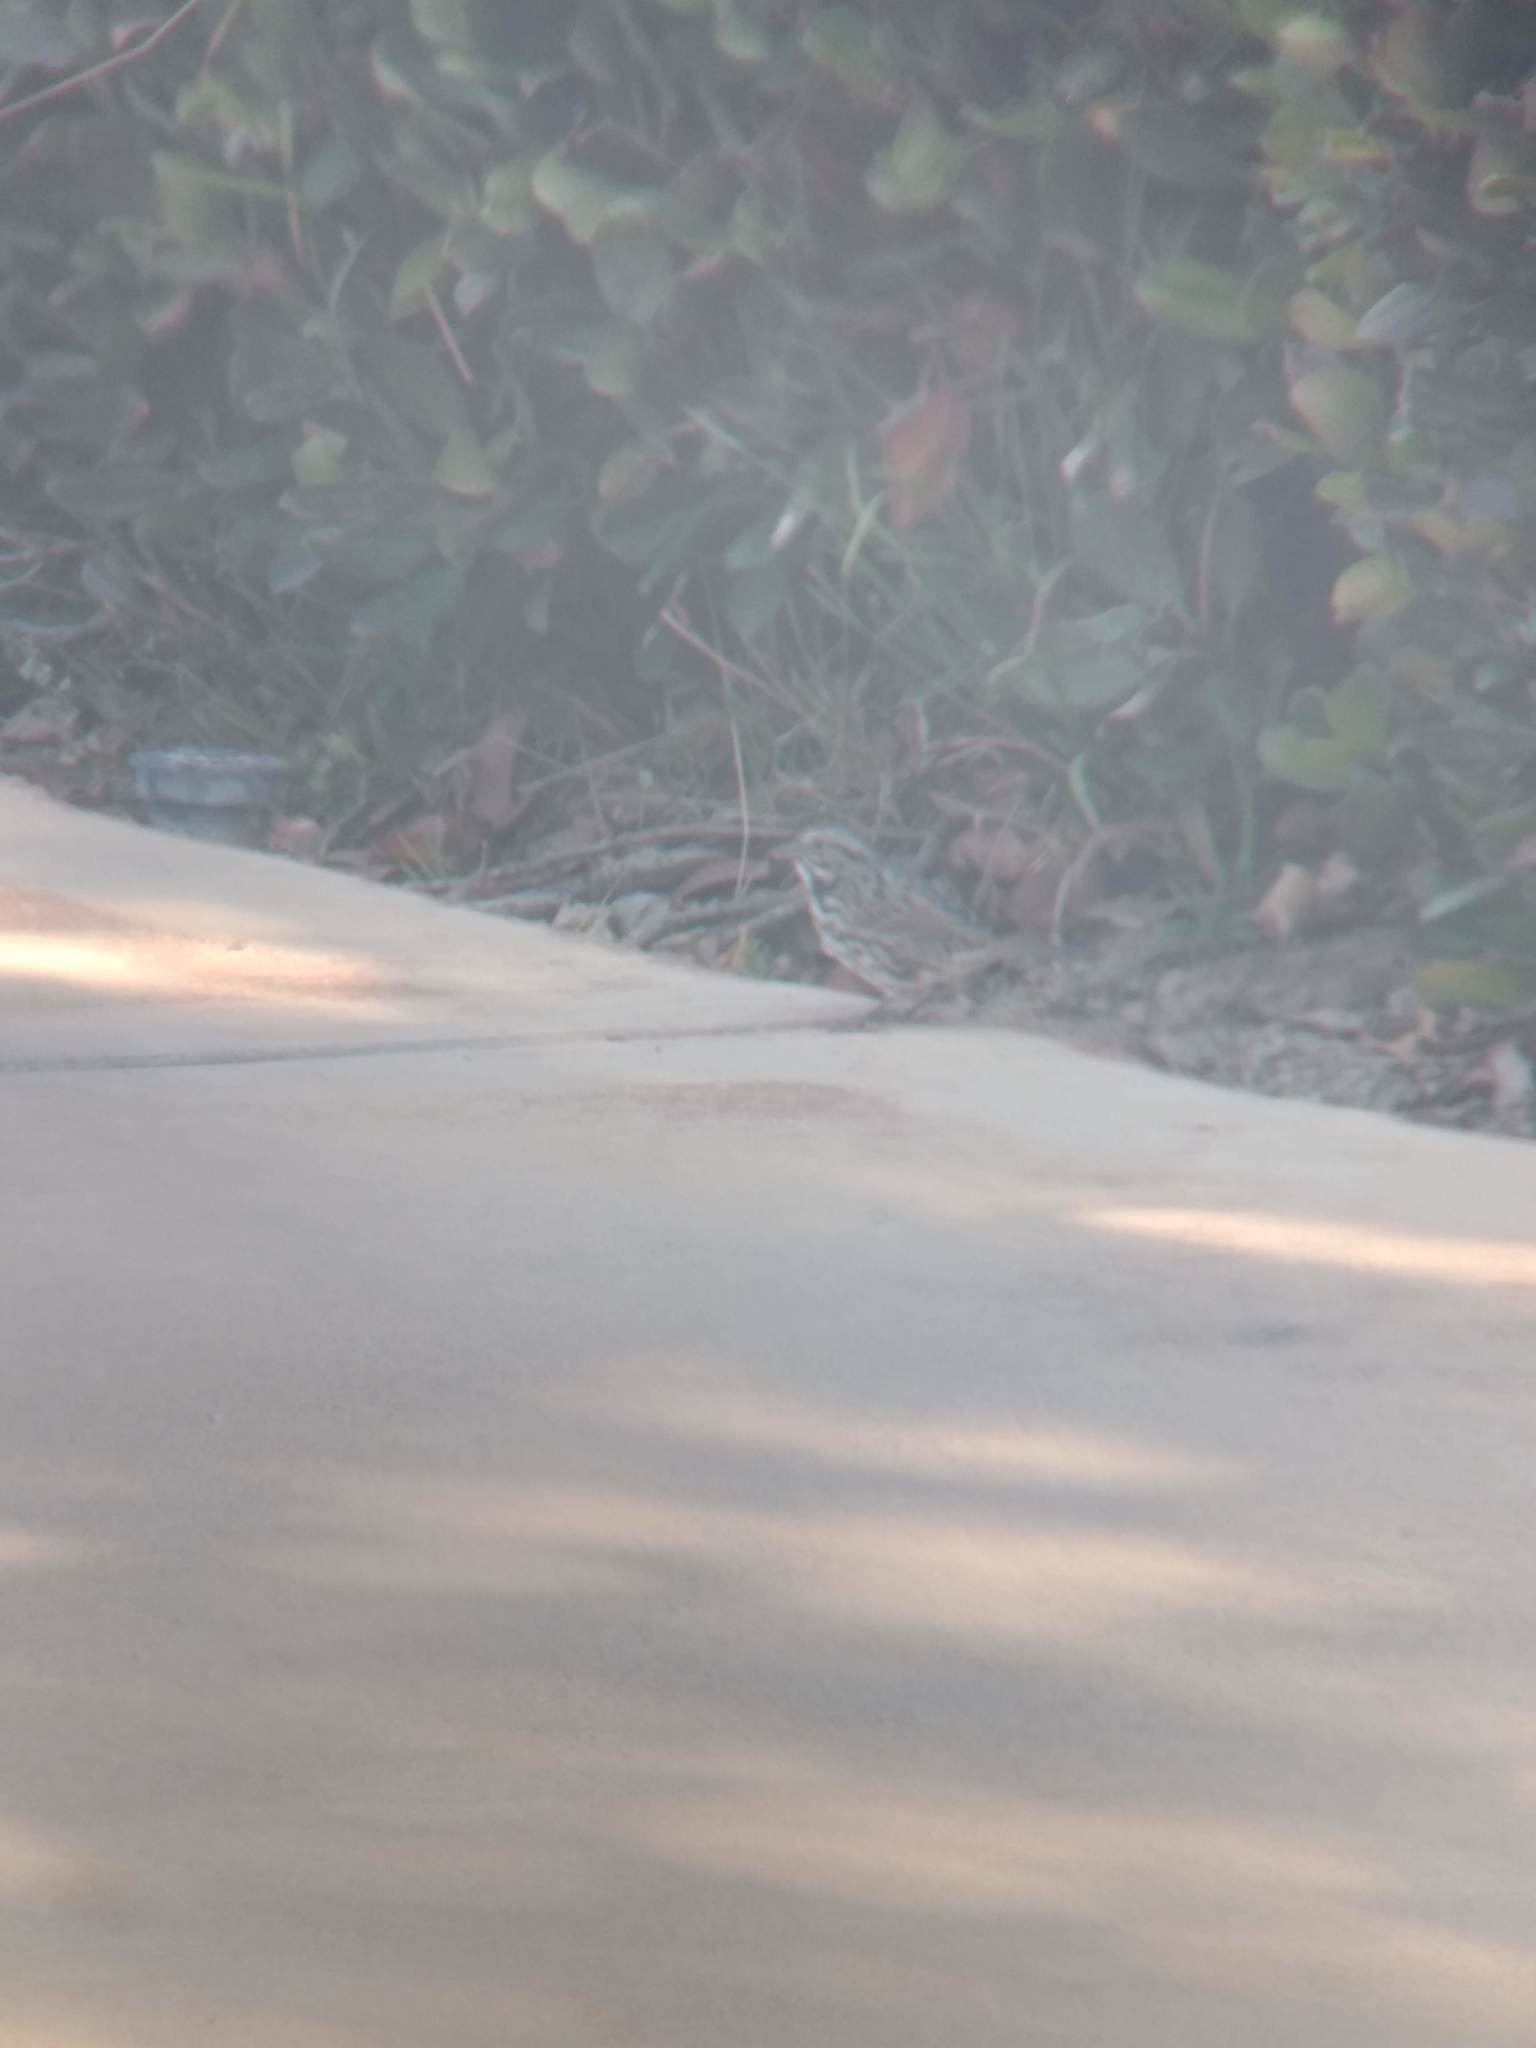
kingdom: Animalia
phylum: Chordata
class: Aves
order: Passeriformes
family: Passerellidae
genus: Melospiza
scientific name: Melospiza melodia
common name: Song sparrow
